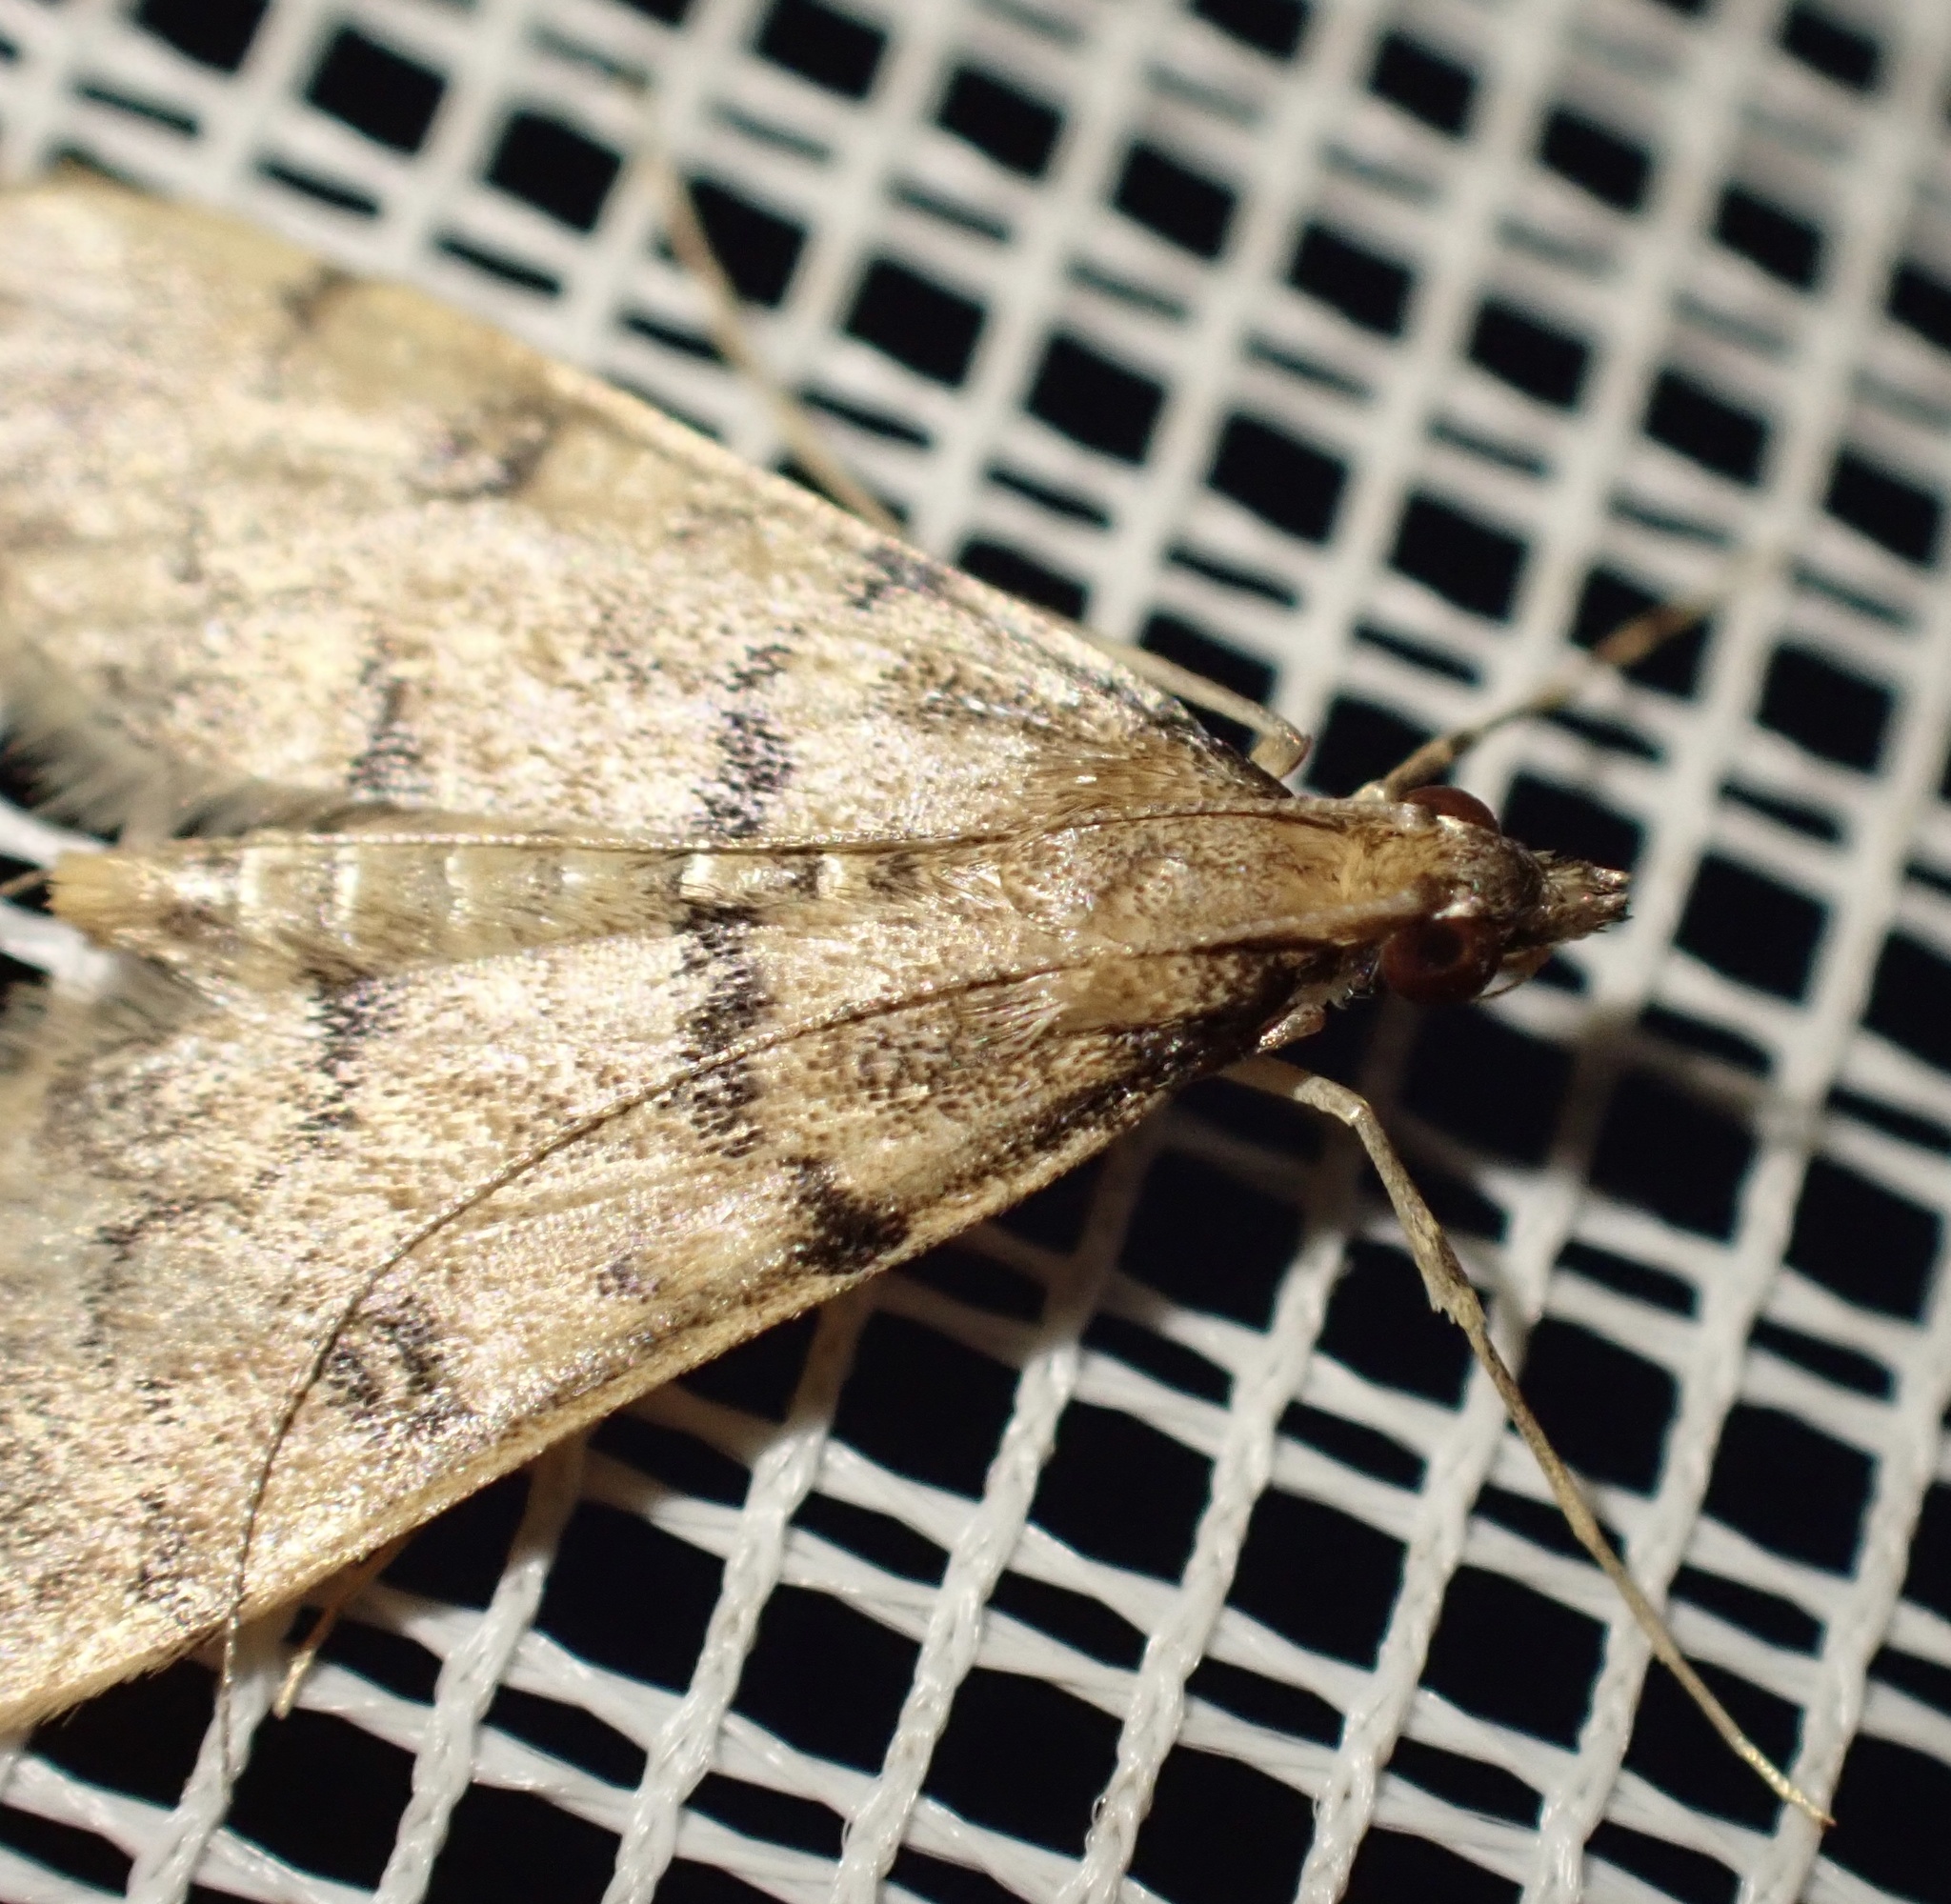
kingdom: Animalia
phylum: Arthropoda
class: Insecta
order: Lepidoptera
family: Crambidae
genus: Stenia
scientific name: Stenia Dolicharthria bruguieralis
